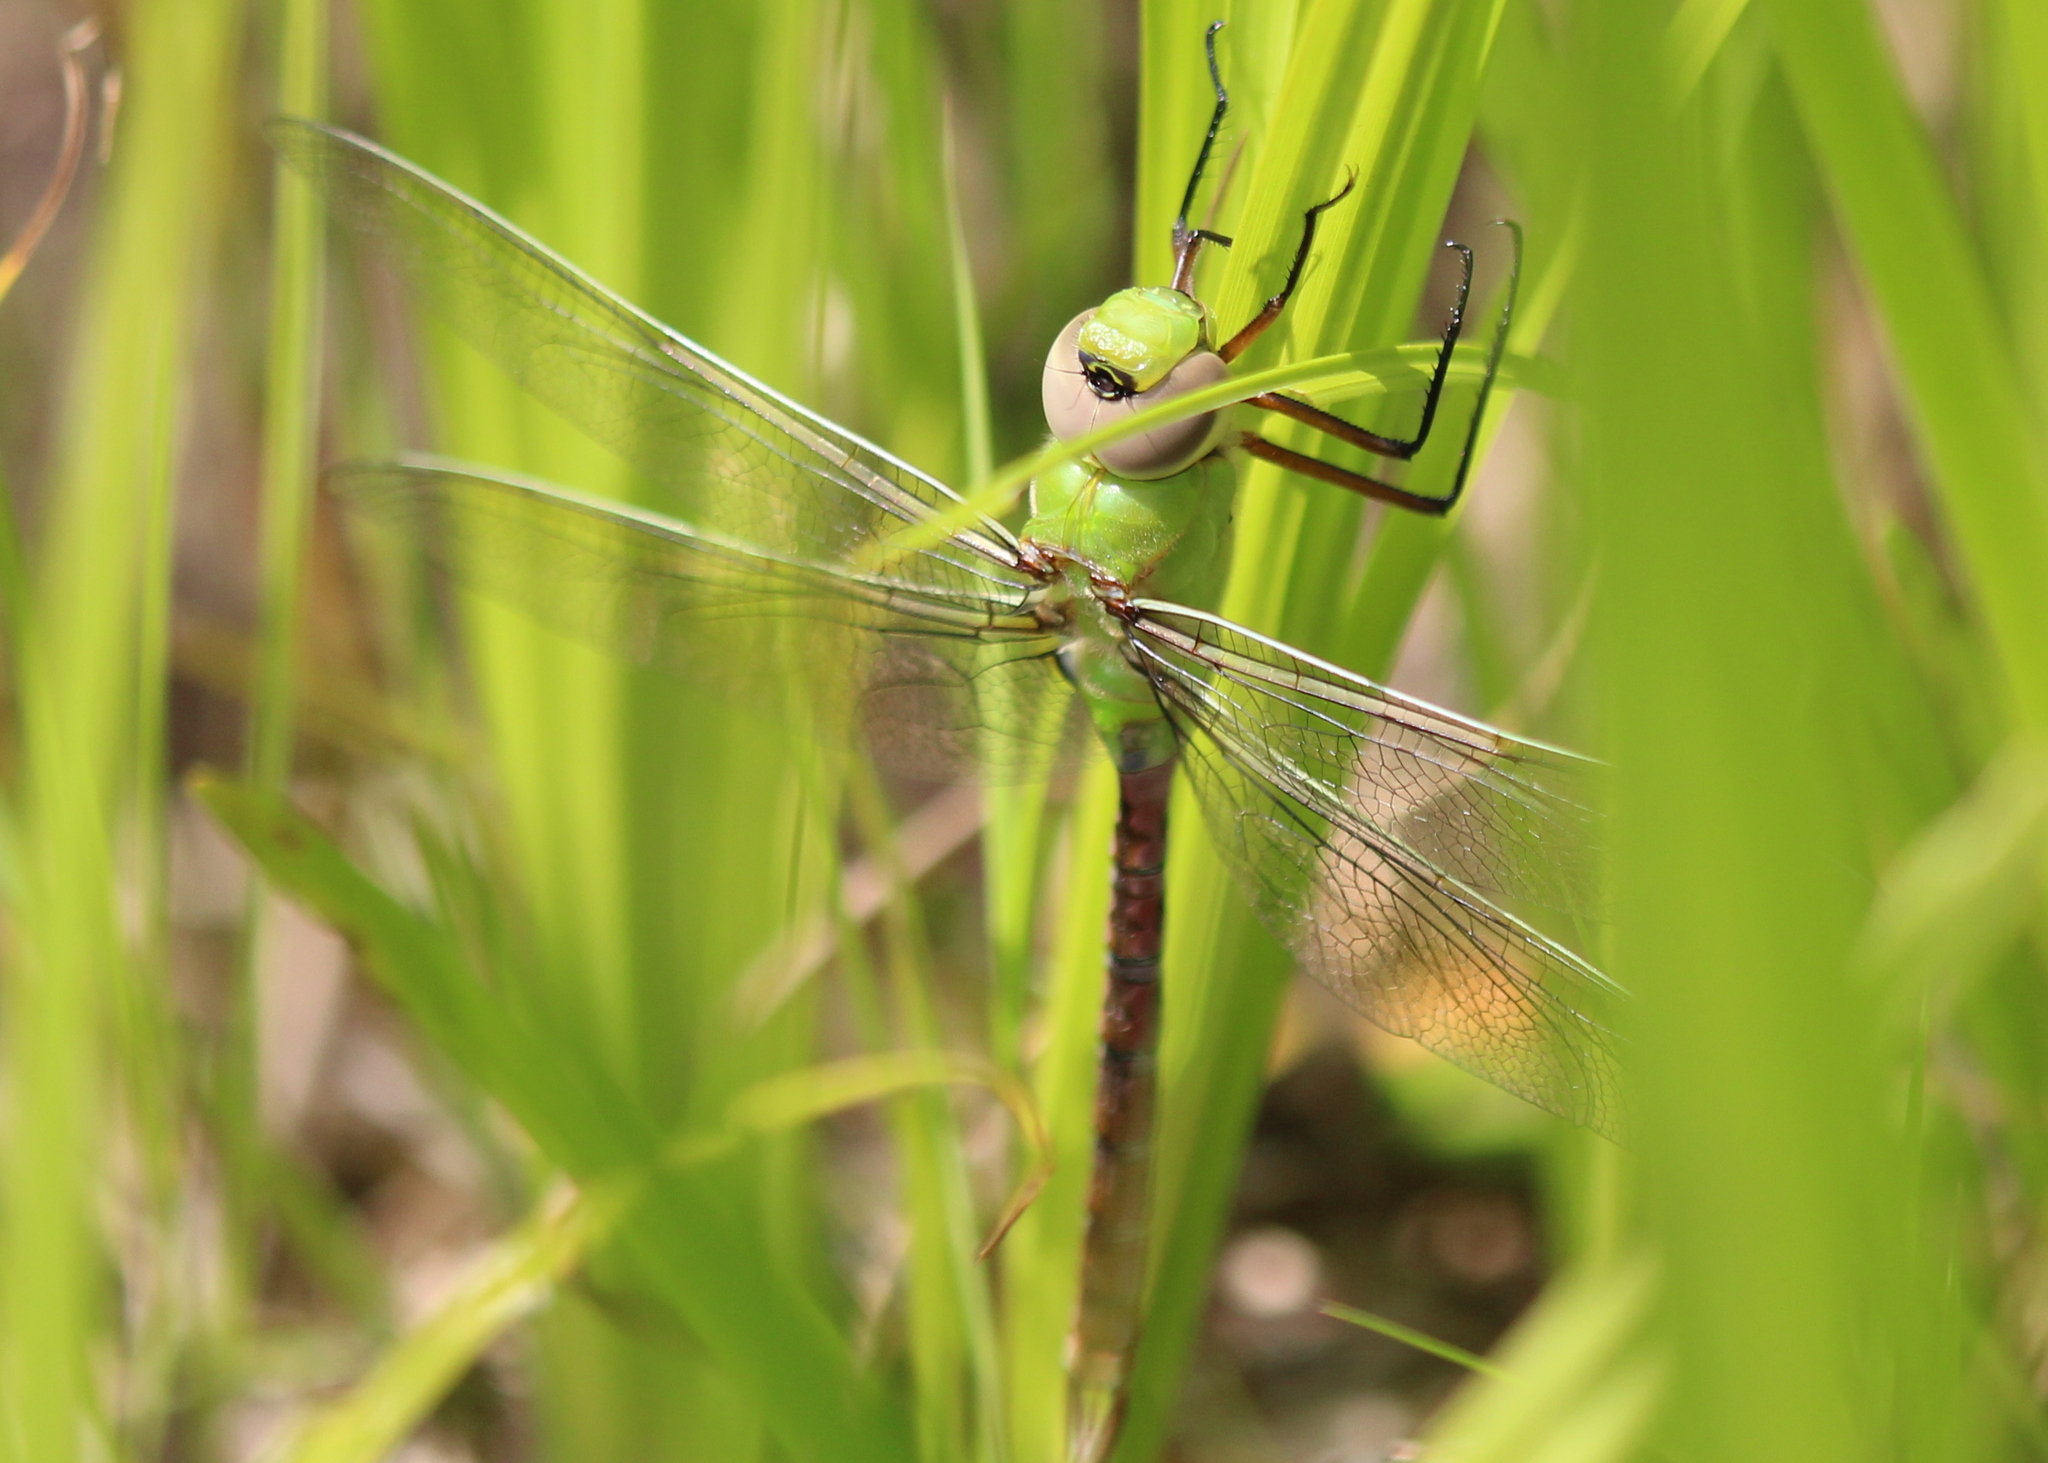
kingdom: Animalia
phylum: Arthropoda
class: Insecta
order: Odonata
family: Aeshnidae
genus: Anax
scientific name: Anax junius
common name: Common green darner
